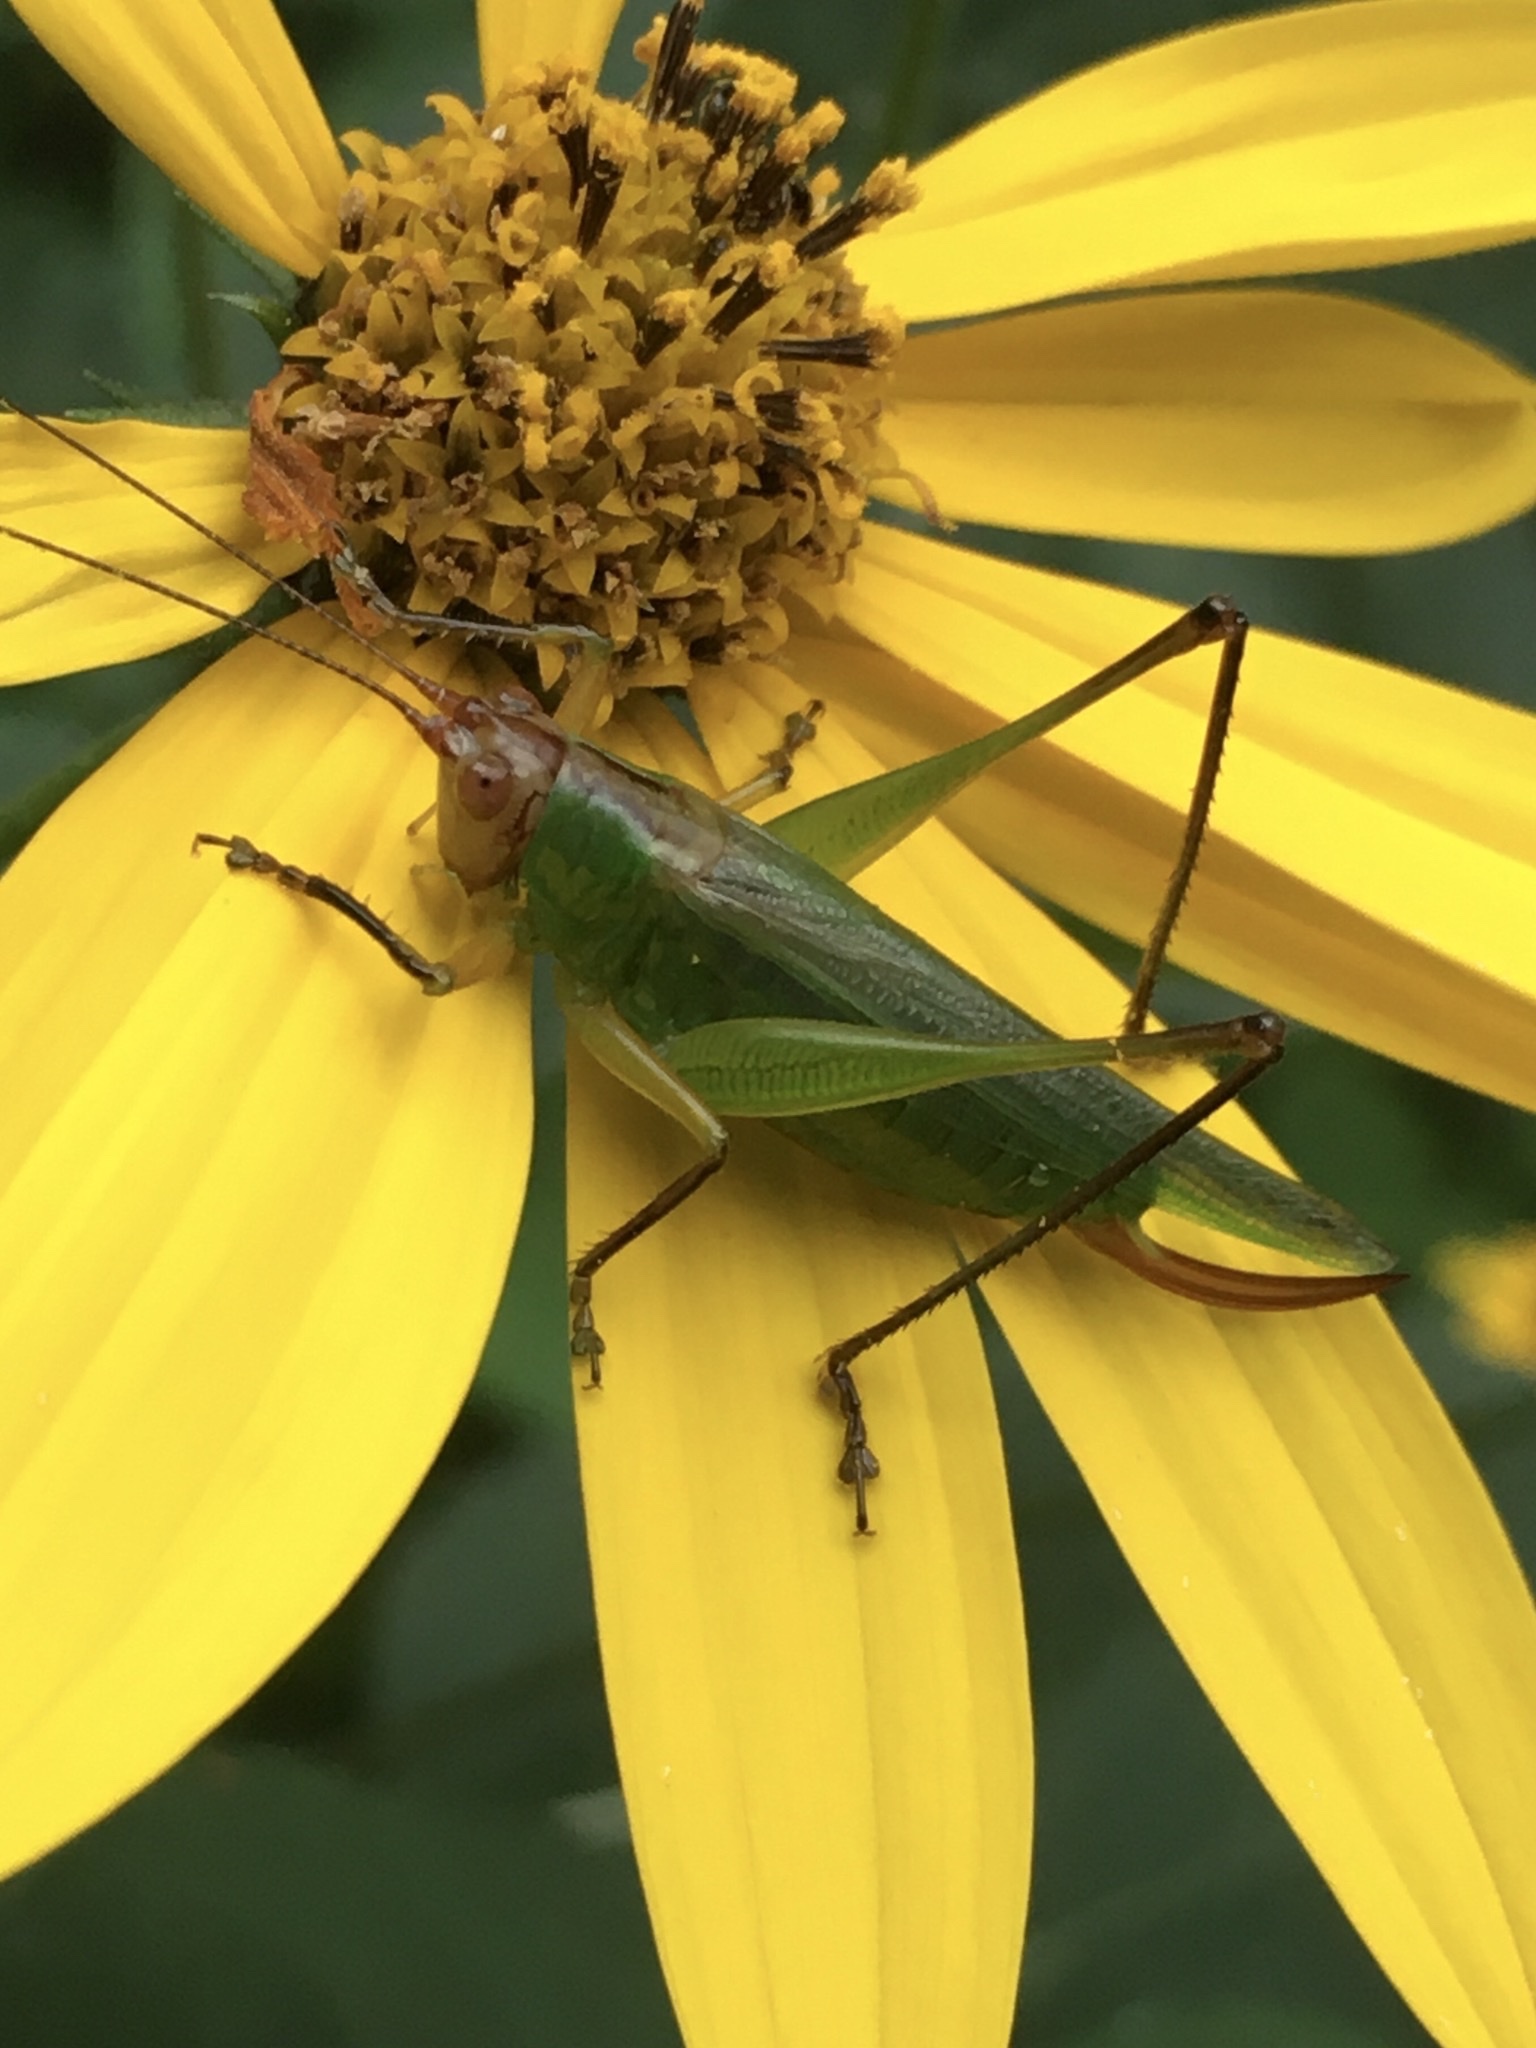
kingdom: Animalia
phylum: Arthropoda
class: Insecta
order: Orthoptera
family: Tettigoniidae
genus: Orchelimum
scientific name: Orchelimum nigripes
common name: Black-legged meadow katydid
